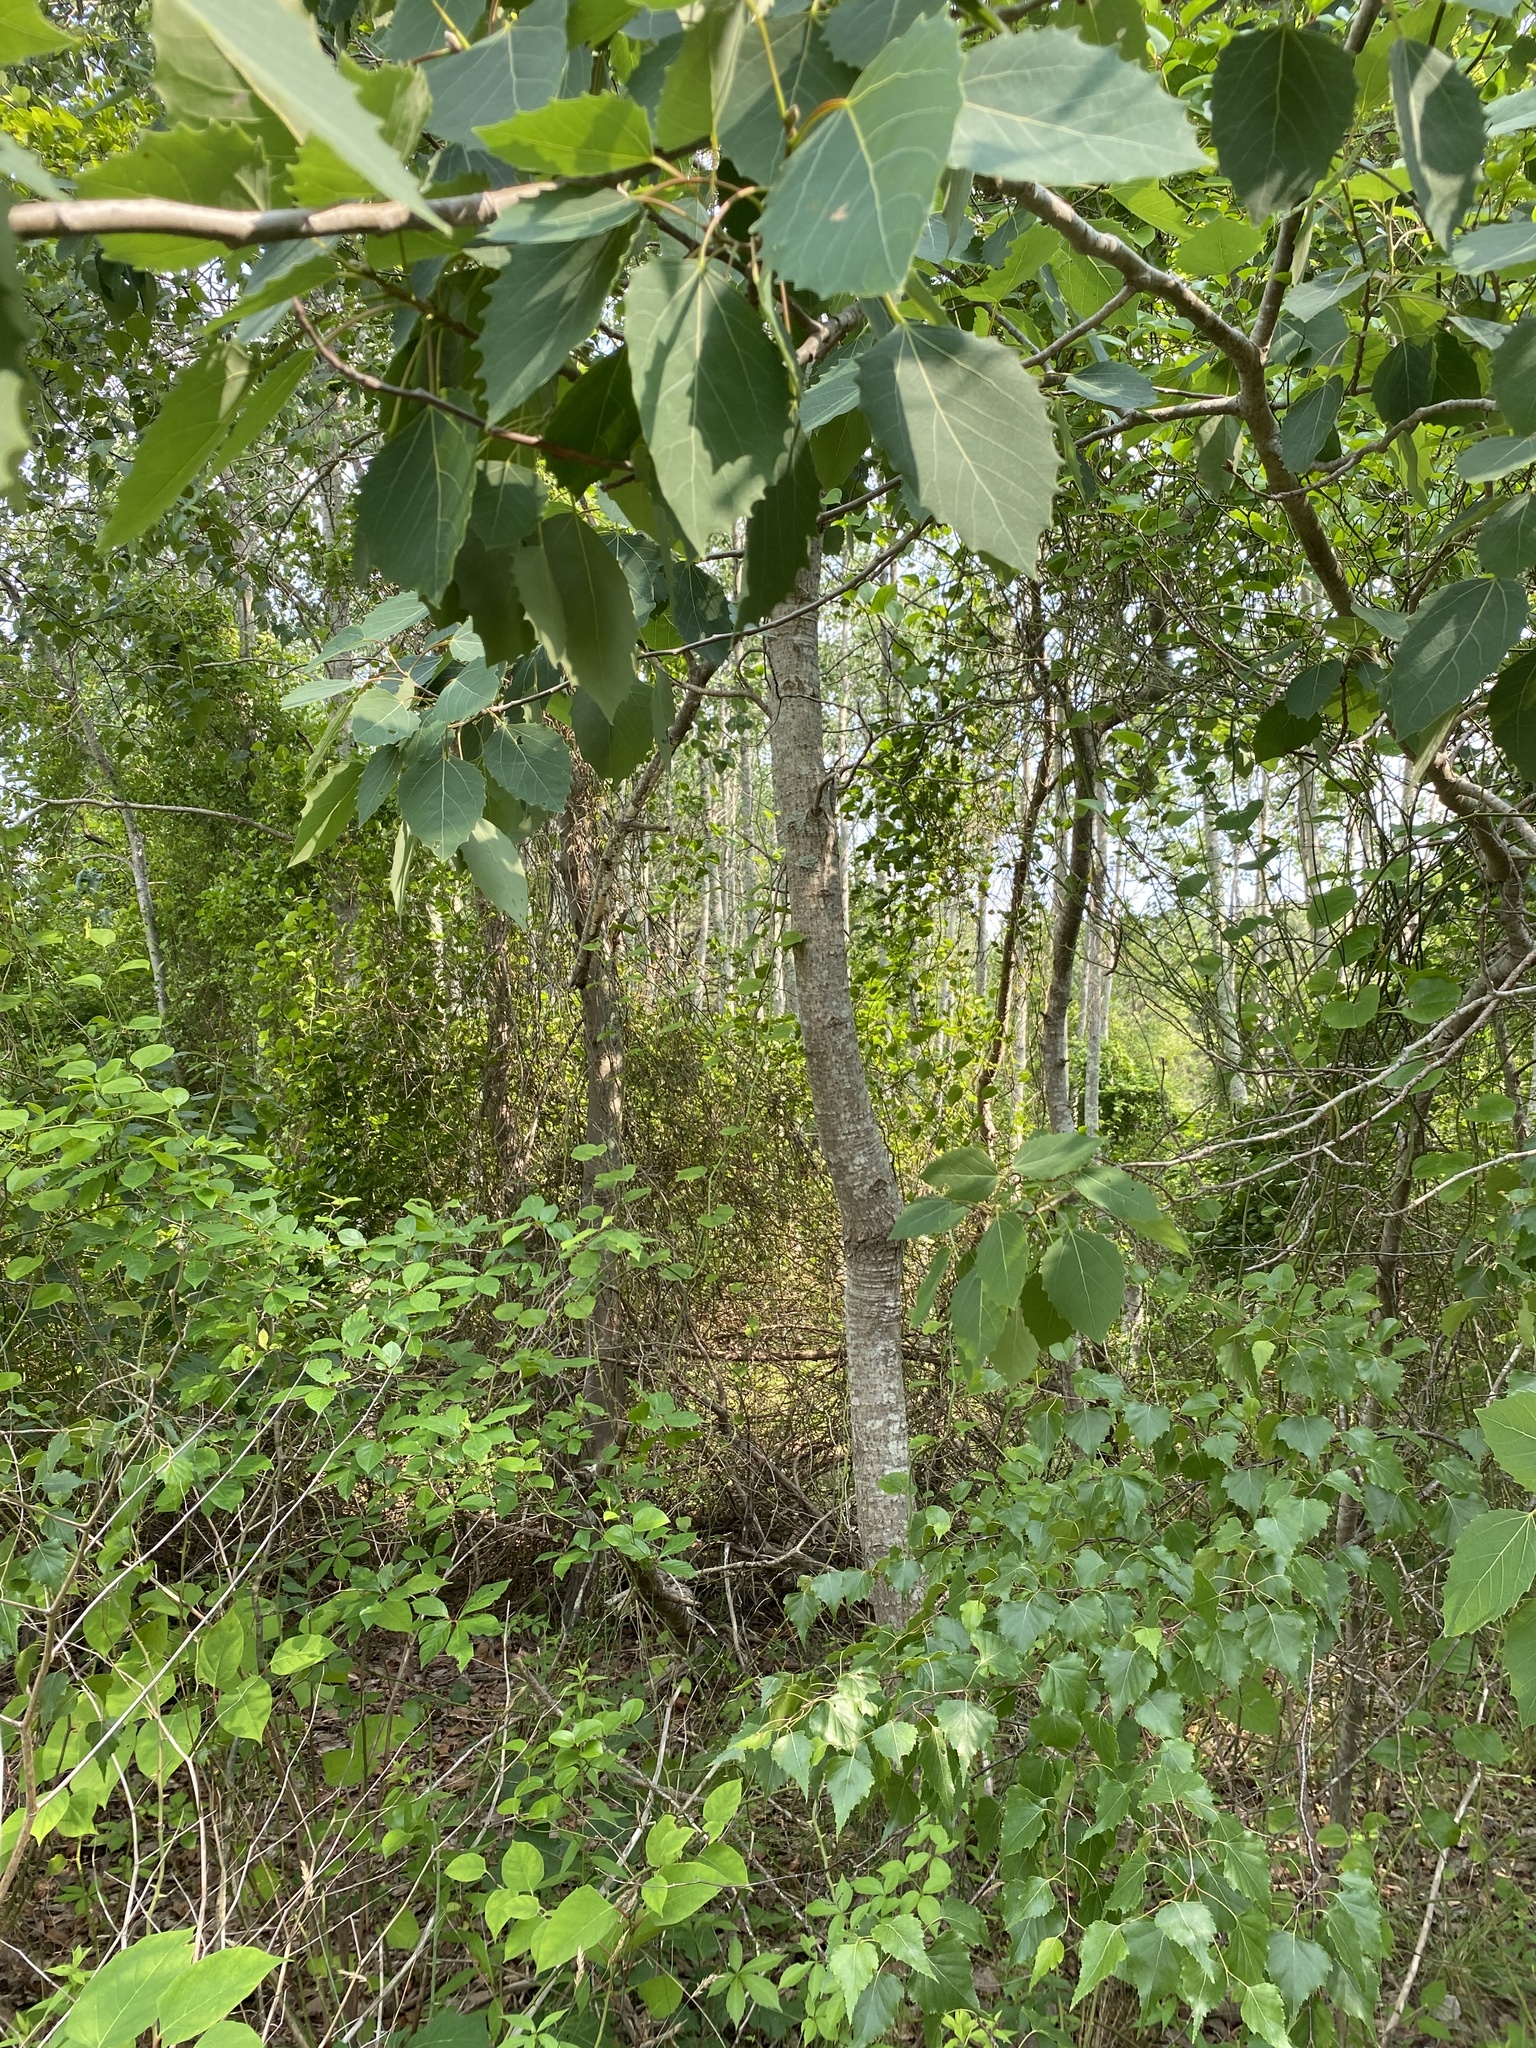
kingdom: Plantae
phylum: Tracheophyta
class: Magnoliopsida
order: Malpighiales
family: Salicaceae
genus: Populus
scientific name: Populus grandidentata
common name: Bigtooth aspen
